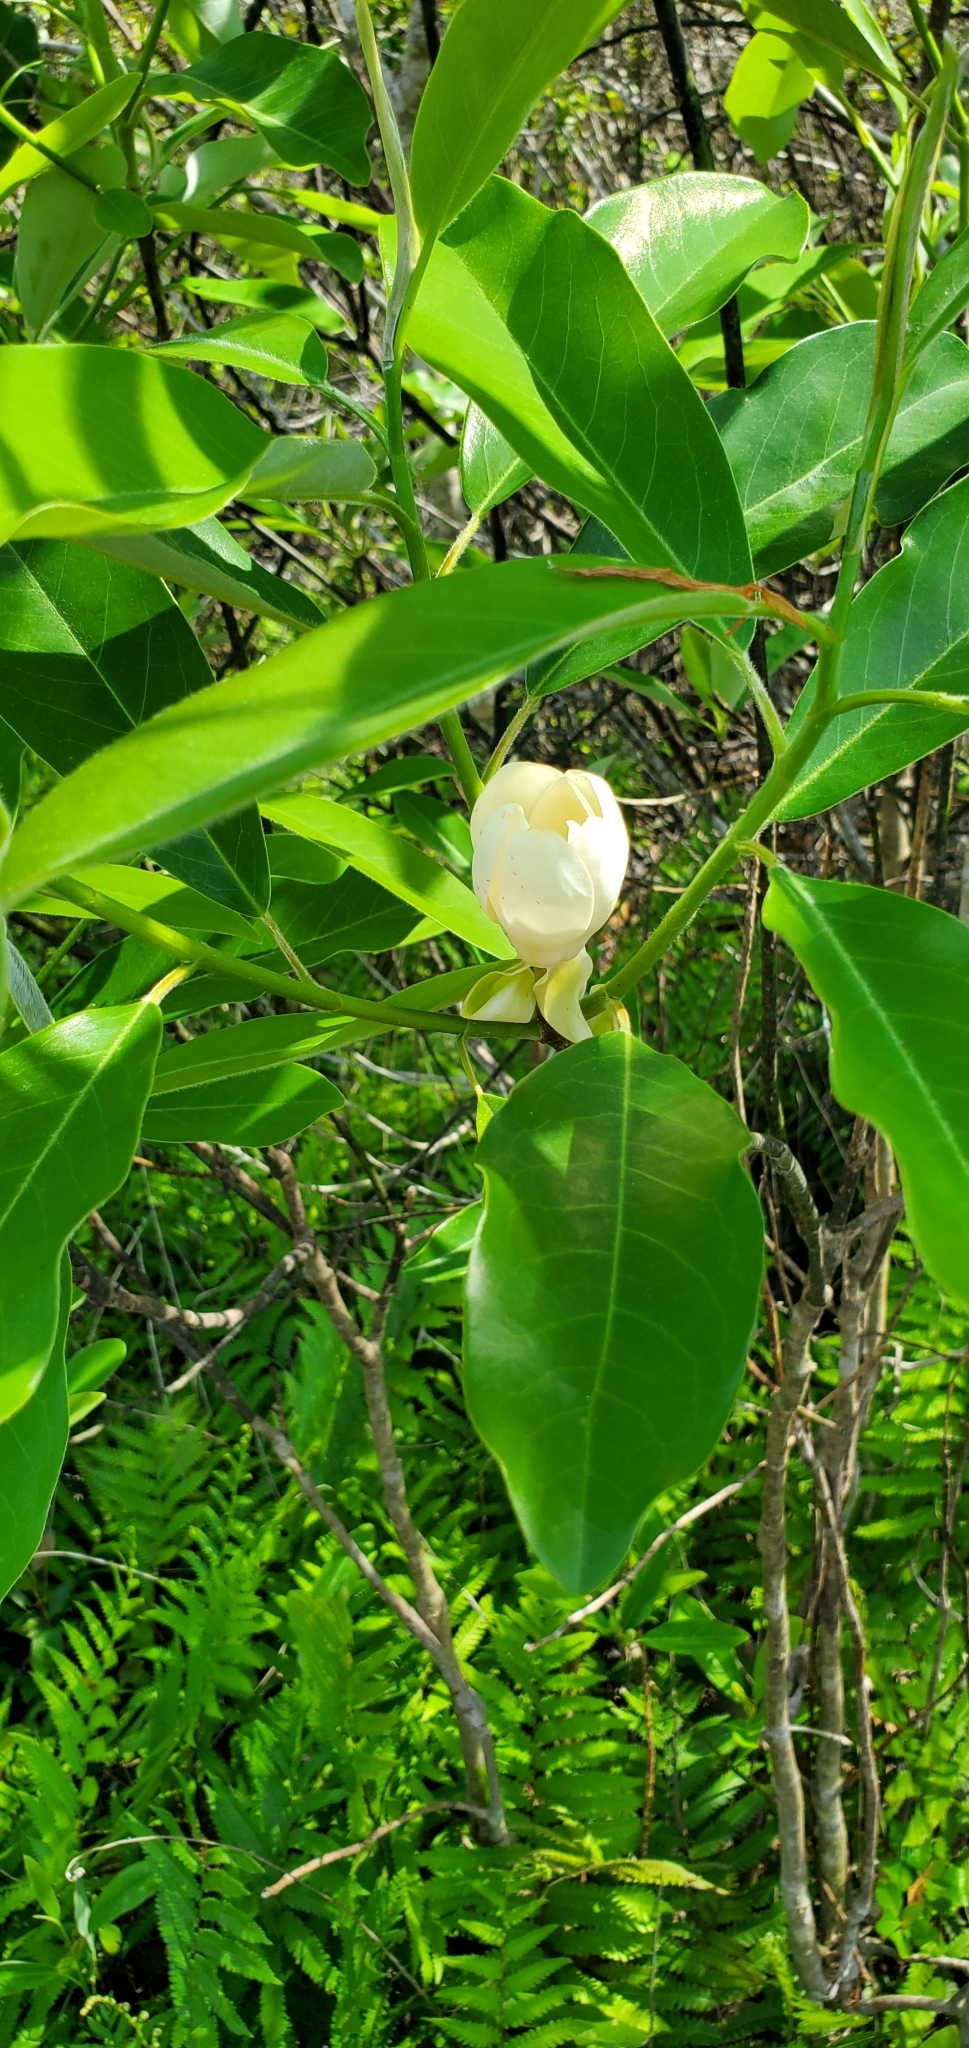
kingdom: Plantae
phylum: Tracheophyta
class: Magnoliopsida
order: Magnoliales
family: Magnoliaceae
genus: Magnolia
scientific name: Magnolia virginiana
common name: Swamp bay
